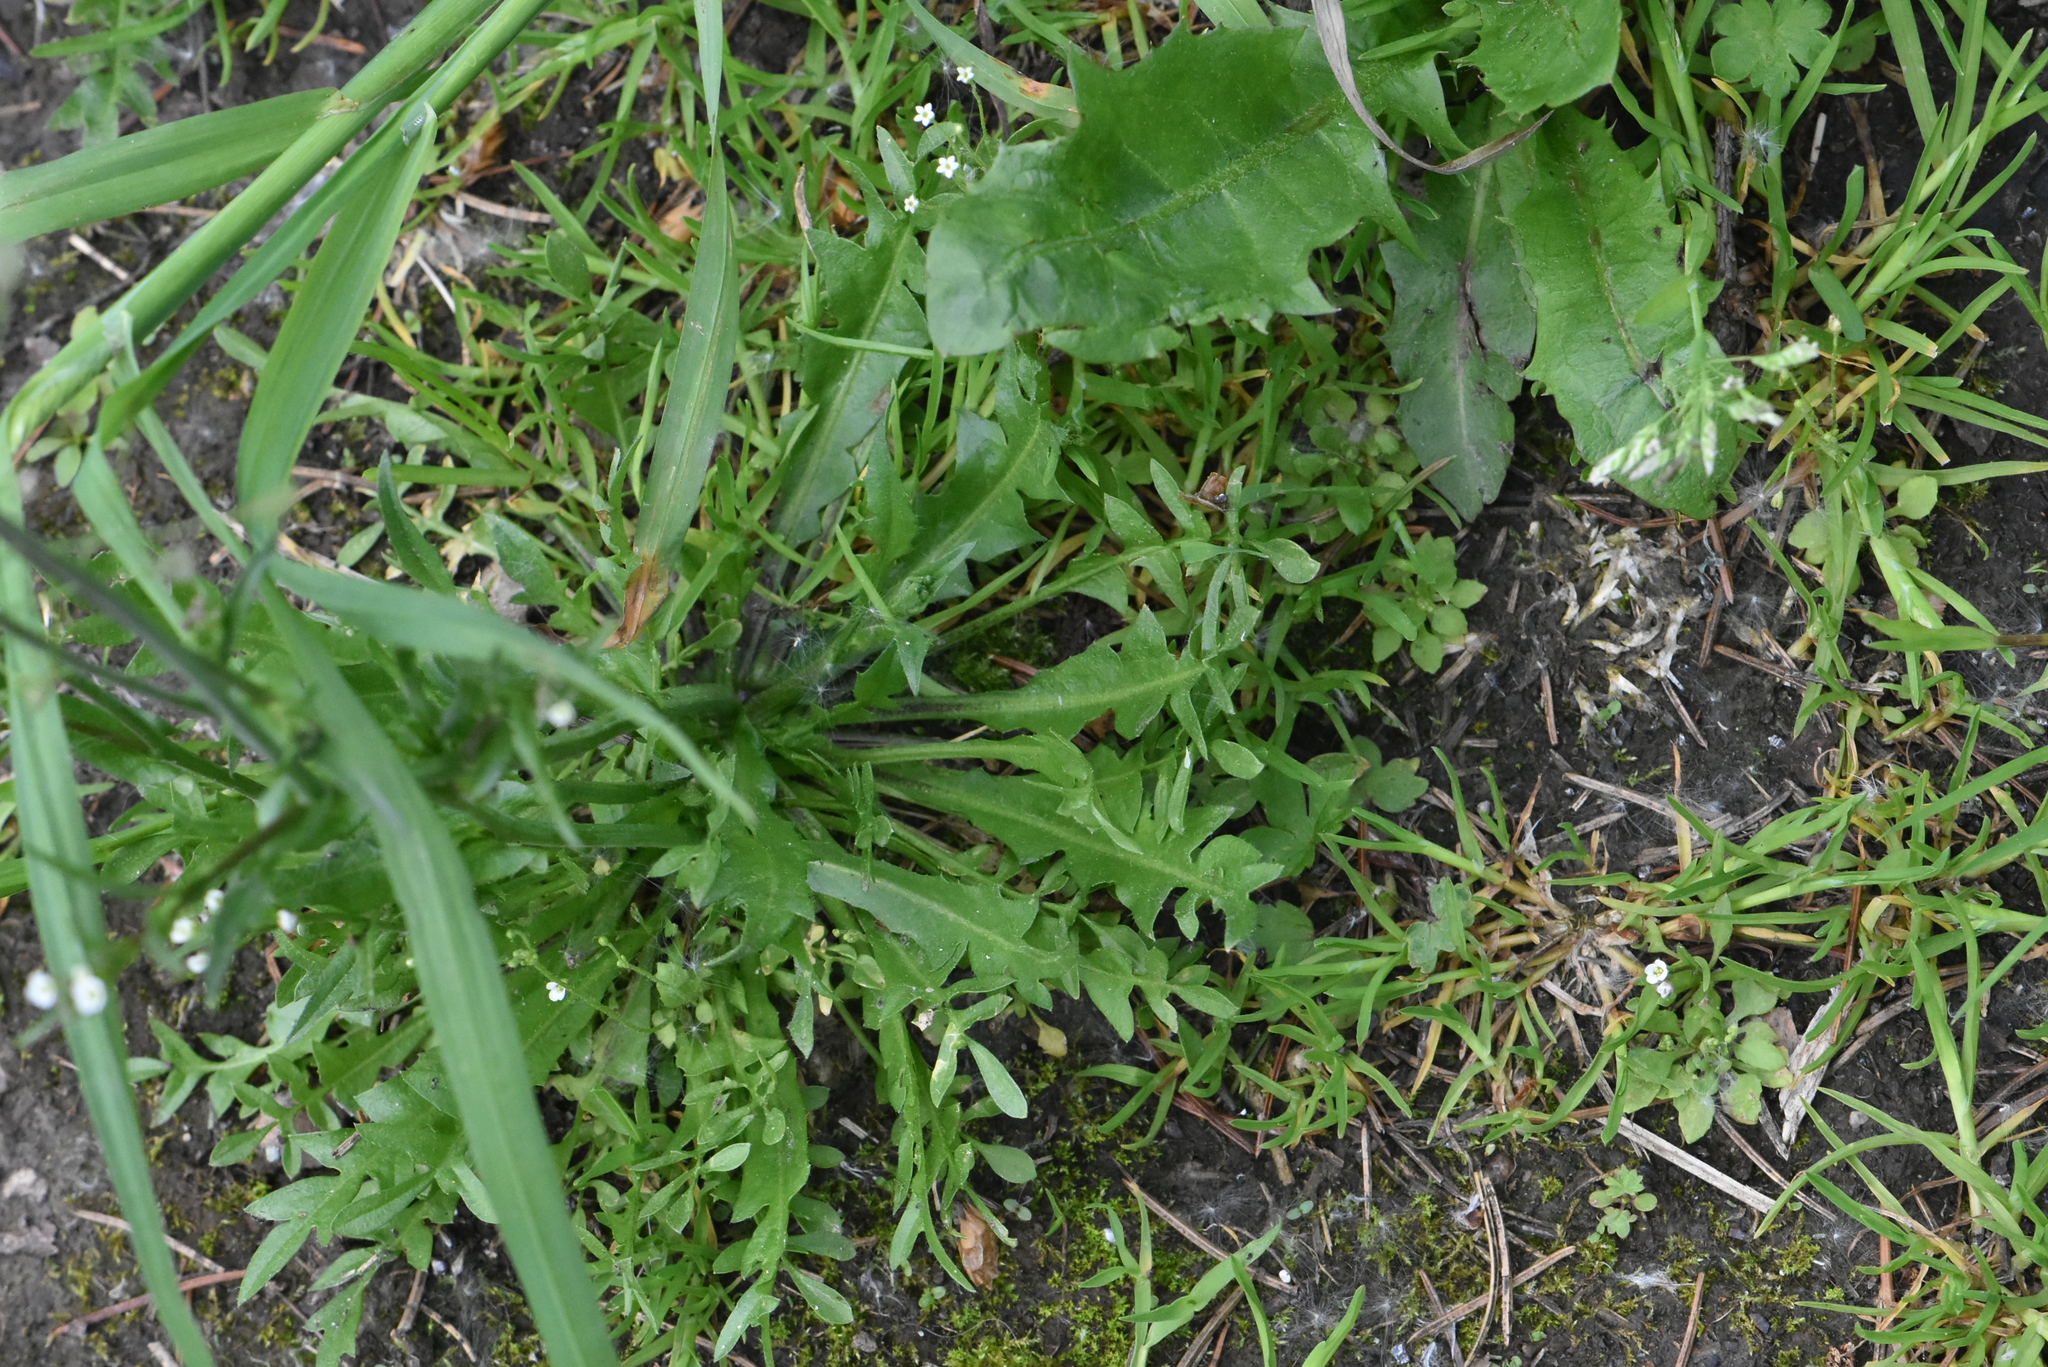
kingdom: Plantae
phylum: Tracheophyta
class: Magnoliopsida
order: Brassicales
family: Brassicaceae
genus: Capsella
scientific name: Capsella bursa-pastoris
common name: Shepherd's purse
